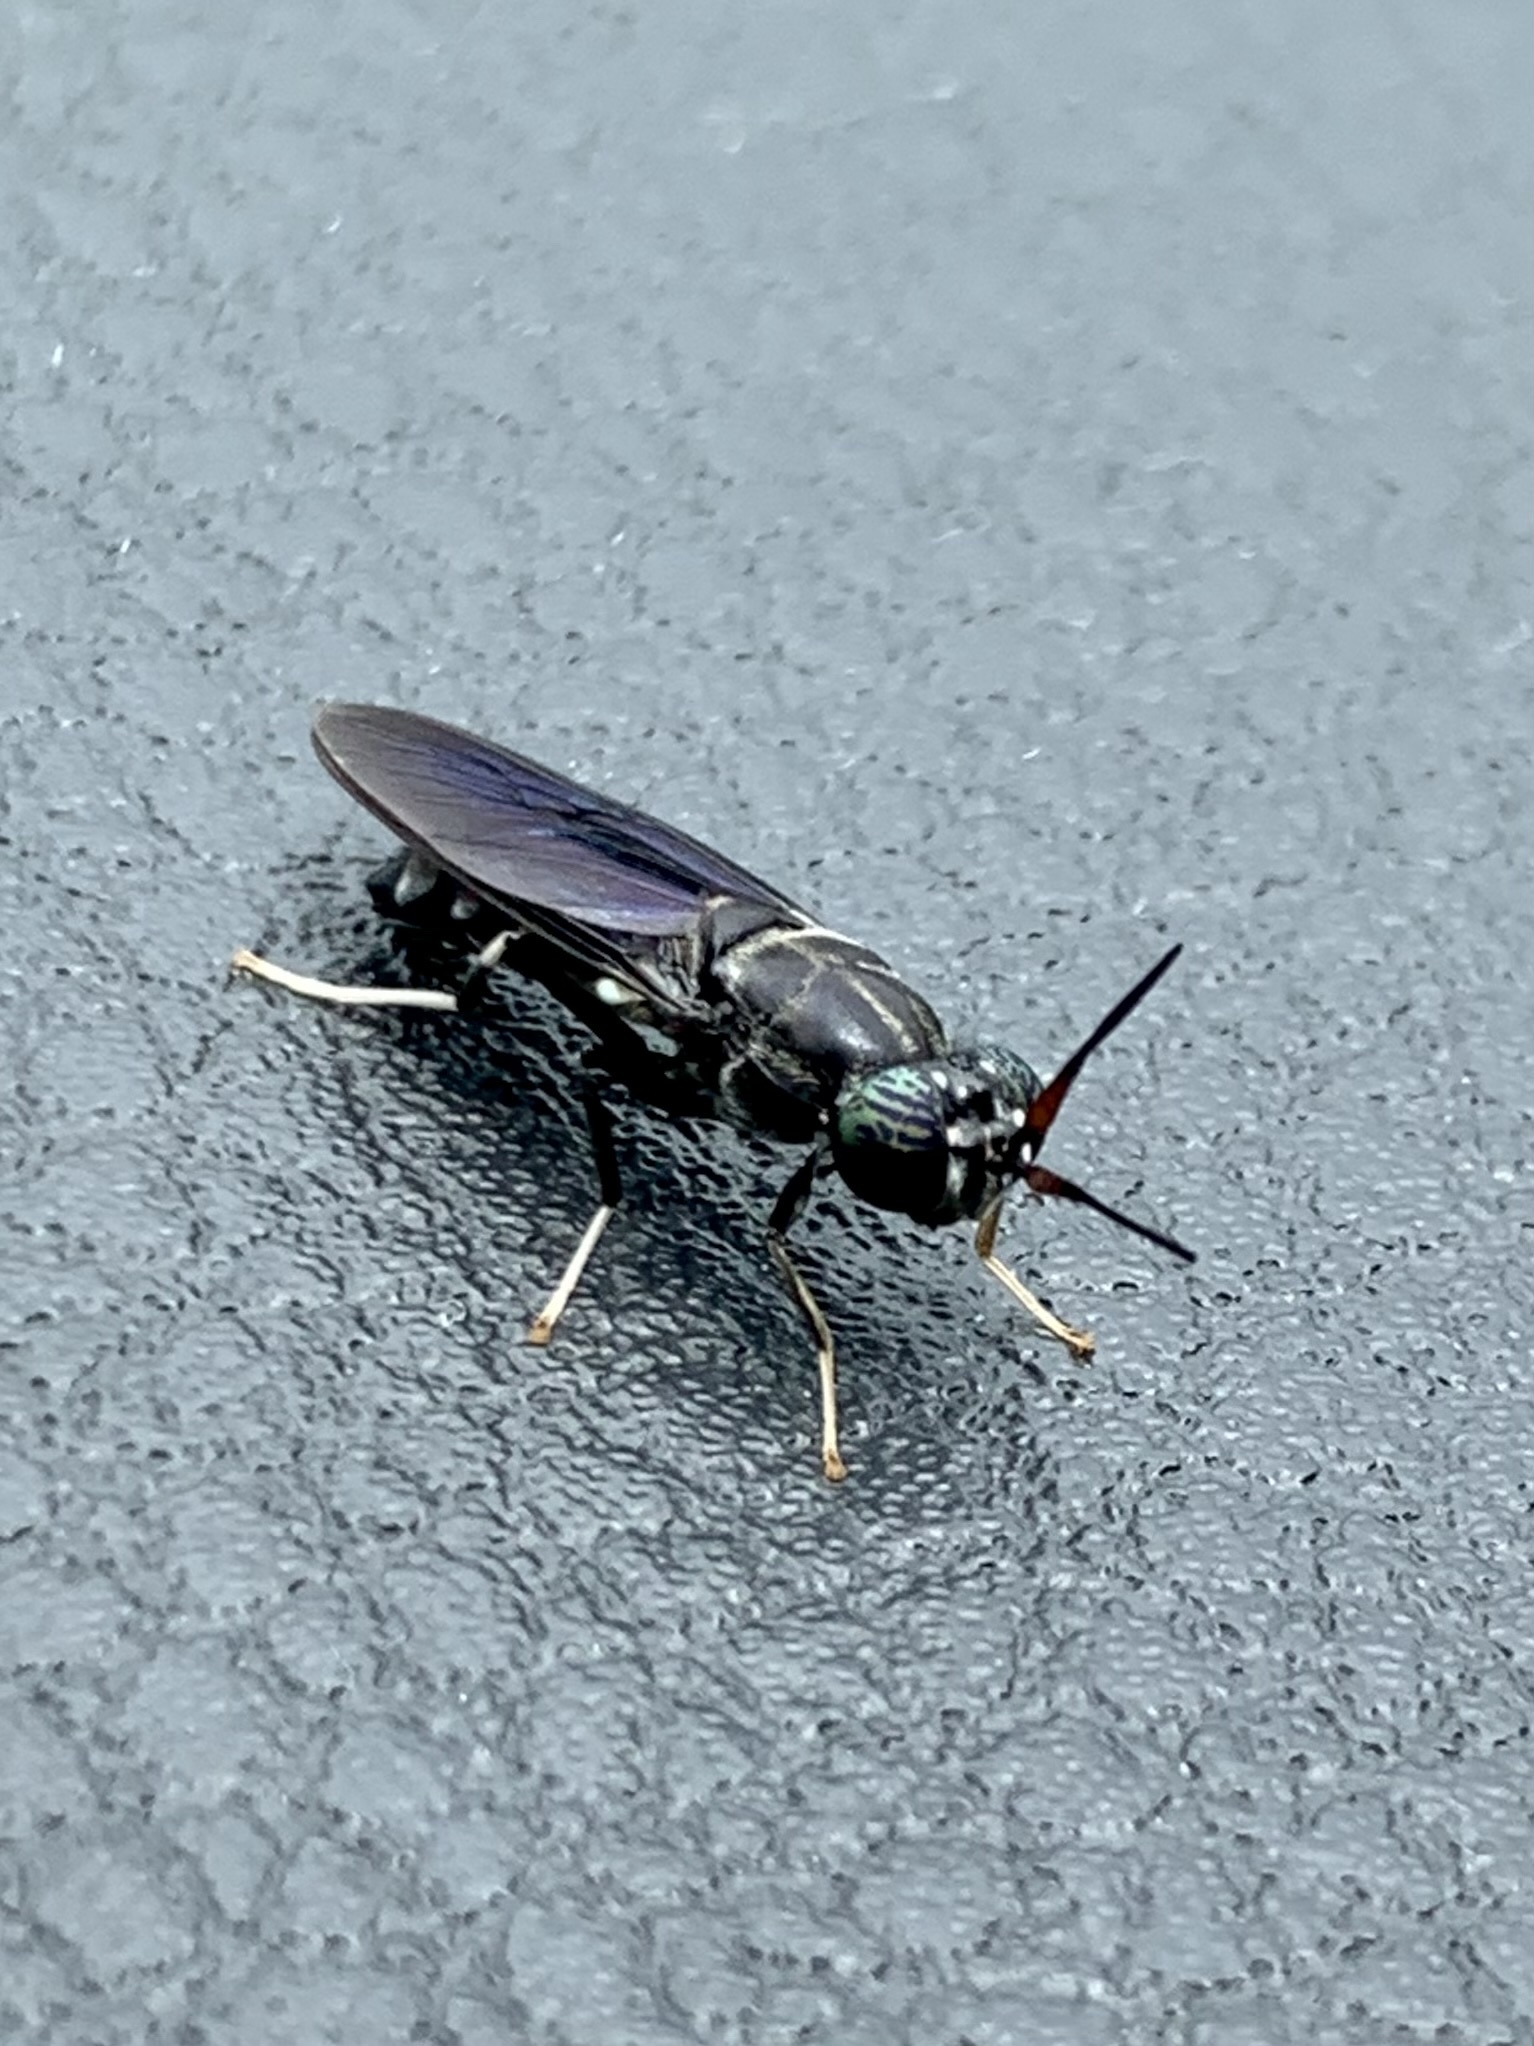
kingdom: Animalia
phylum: Arthropoda
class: Insecta
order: Diptera
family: Stratiomyidae
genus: Hermetia
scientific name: Hermetia illucens
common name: Black soldier fly
